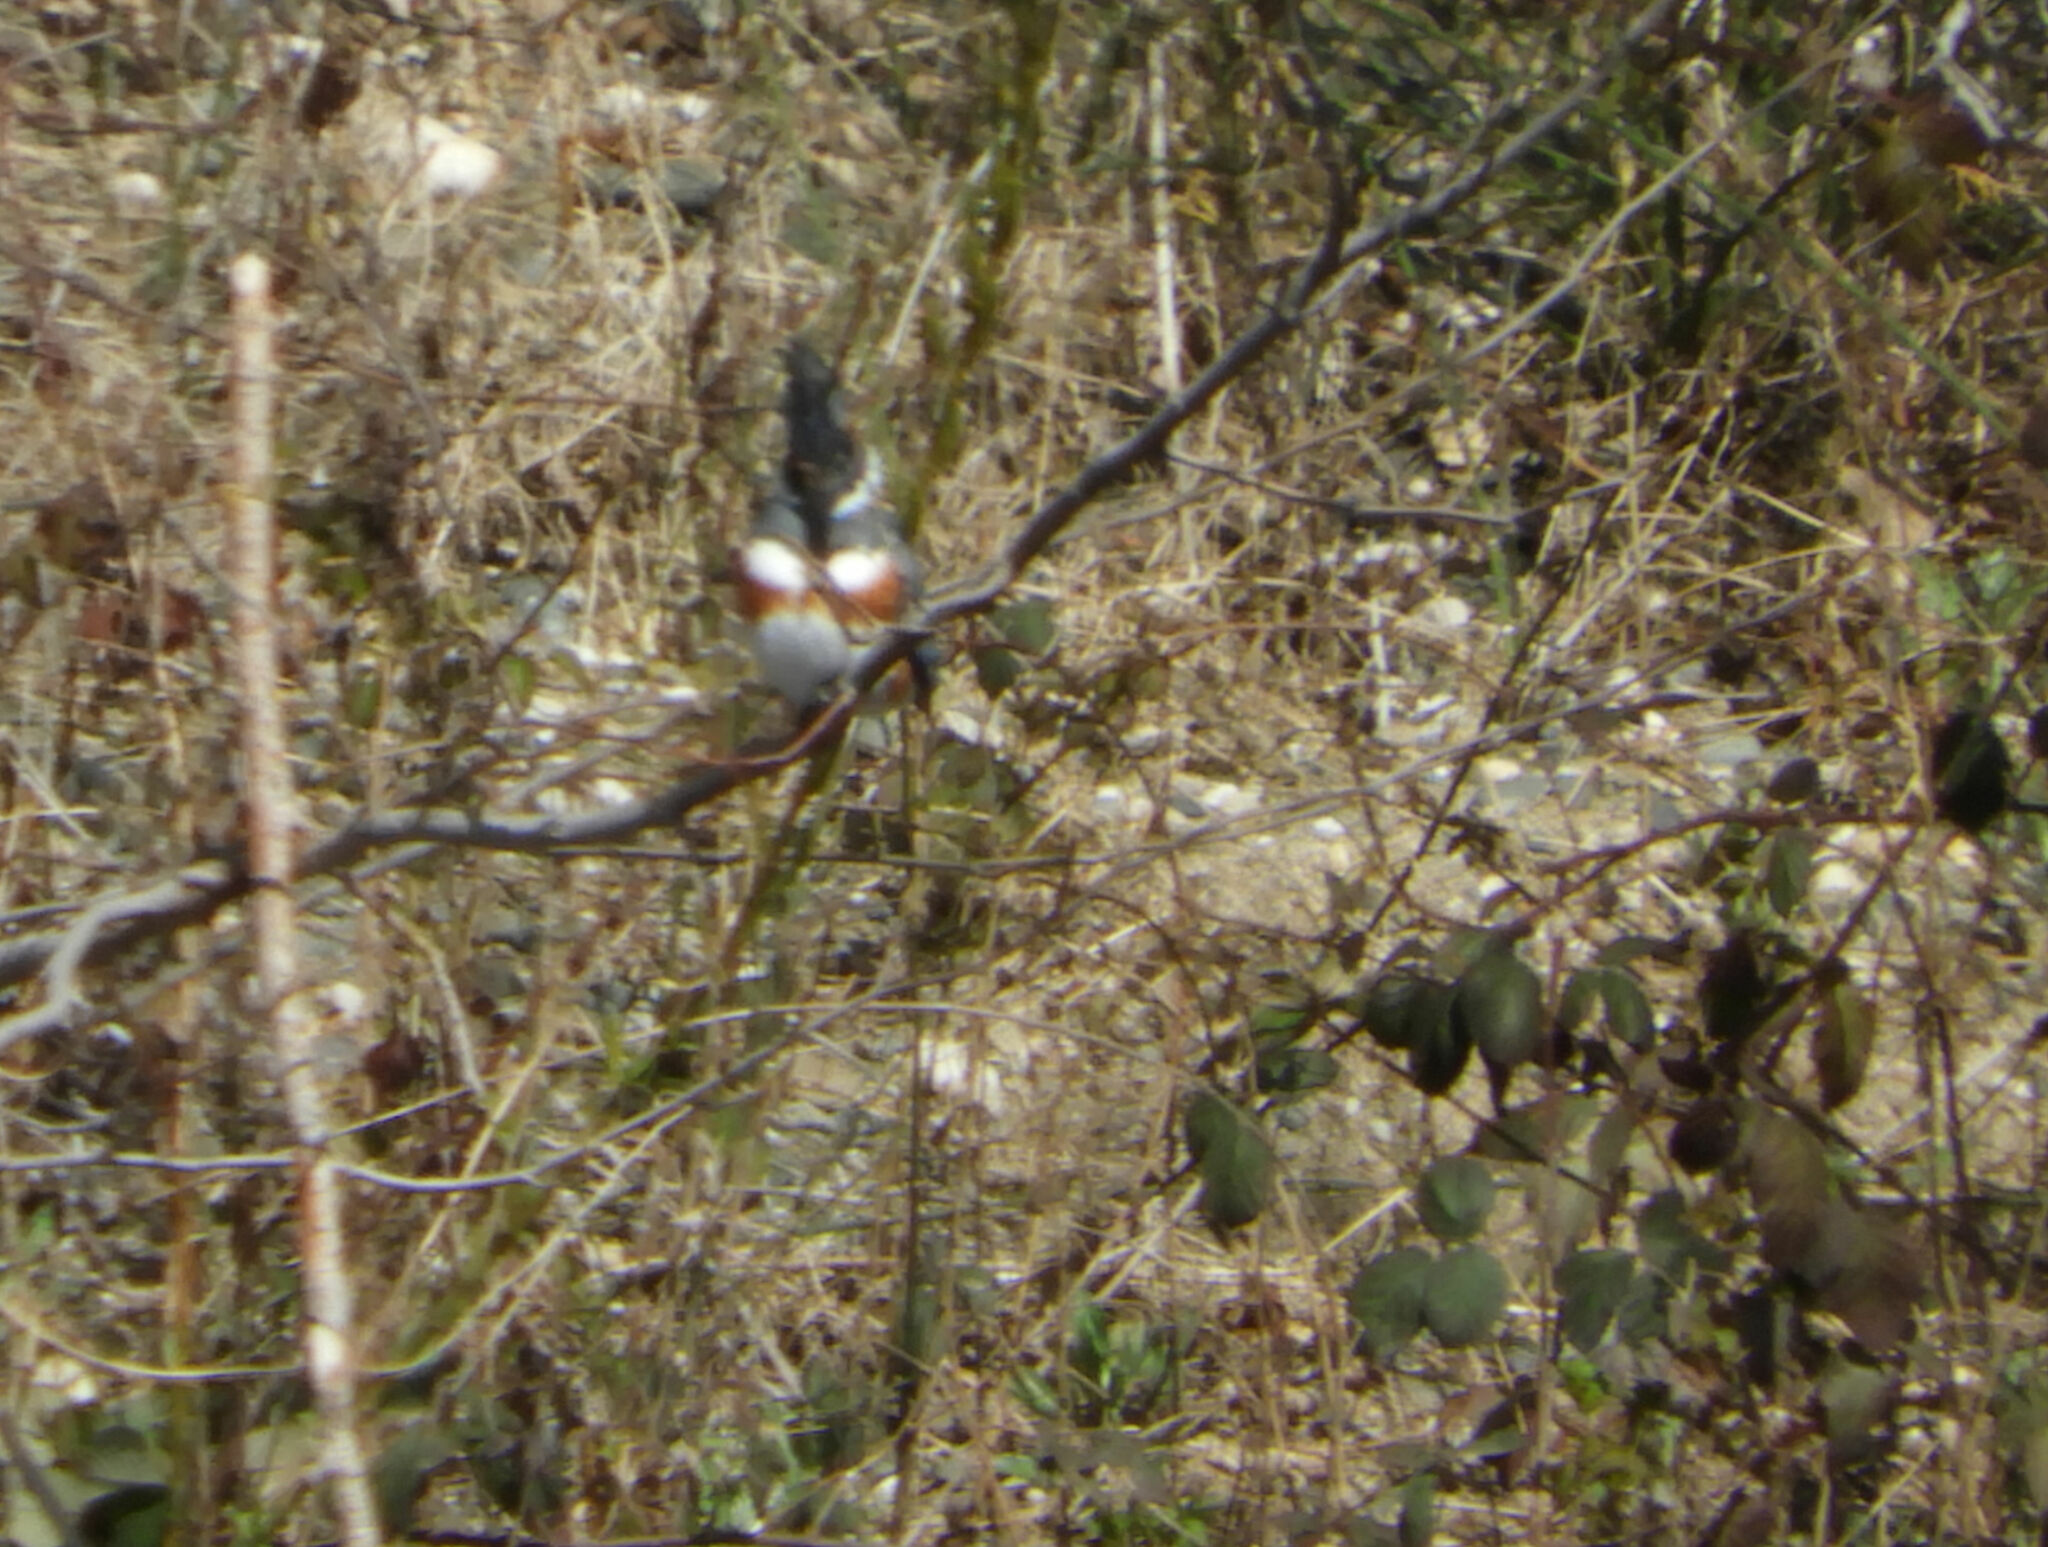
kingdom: Animalia
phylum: Chordata
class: Aves
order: Coraciiformes
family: Alcedinidae
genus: Megaceryle
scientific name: Megaceryle alcyon
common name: Belted kingfisher
